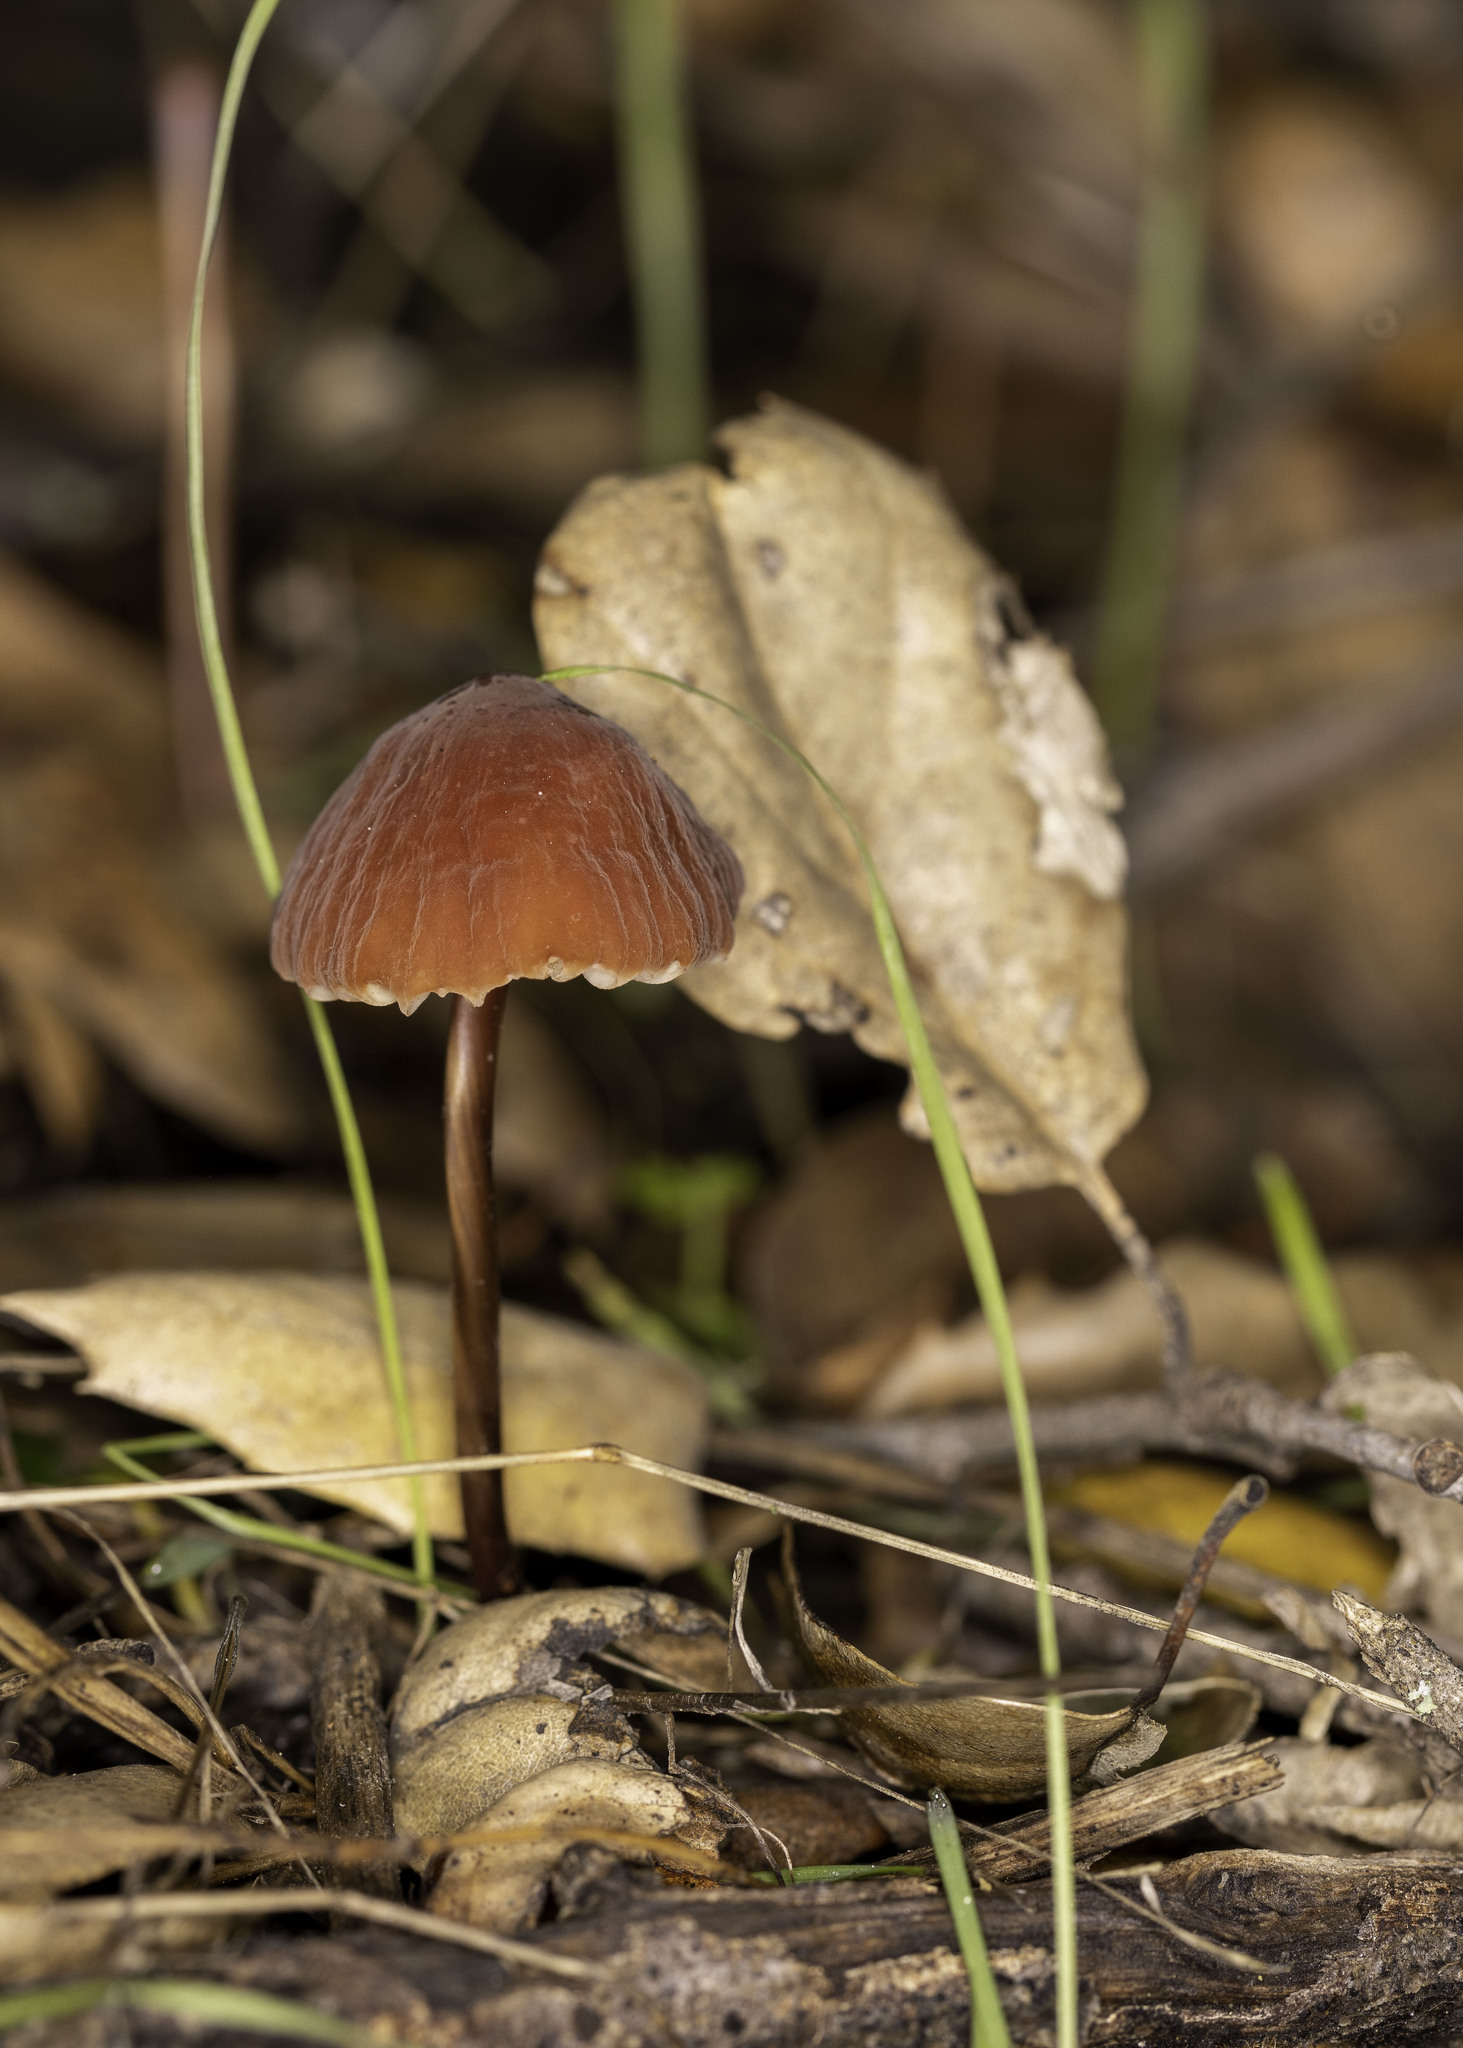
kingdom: Fungi
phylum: Basidiomycota
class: Agaricomycetes
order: Agaricales
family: Marasmiaceae
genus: Marasmius
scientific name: Marasmius plicatulus
